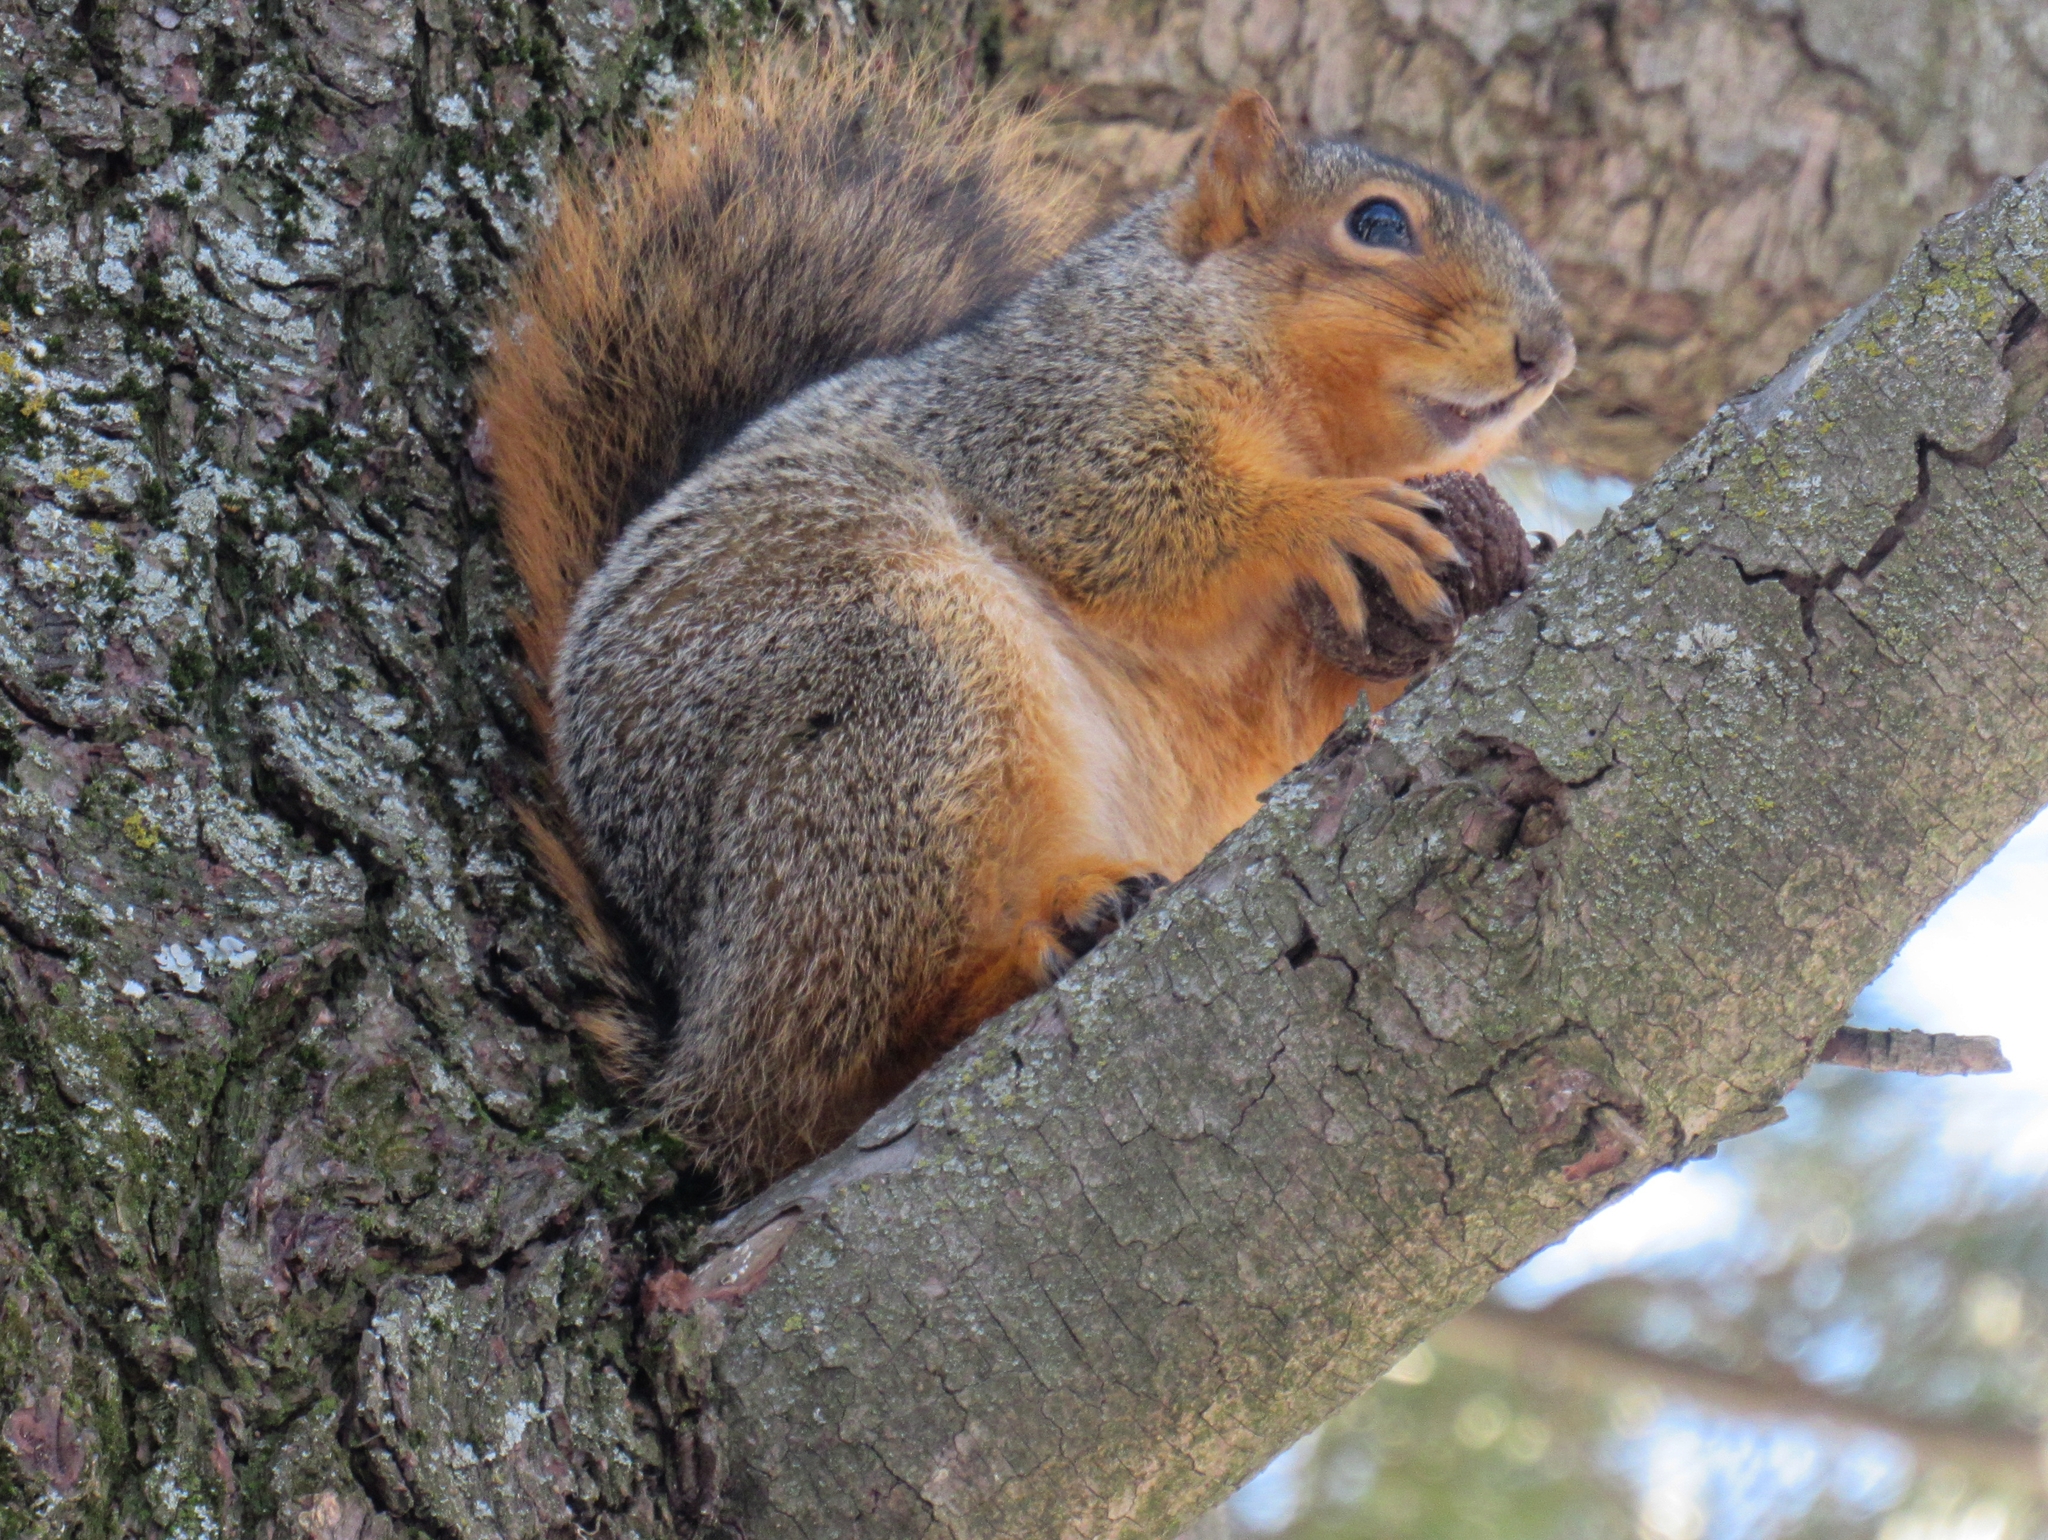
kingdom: Animalia
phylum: Chordata
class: Mammalia
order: Rodentia
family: Sciuridae
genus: Sciurus
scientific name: Sciurus niger
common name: Fox squirrel
